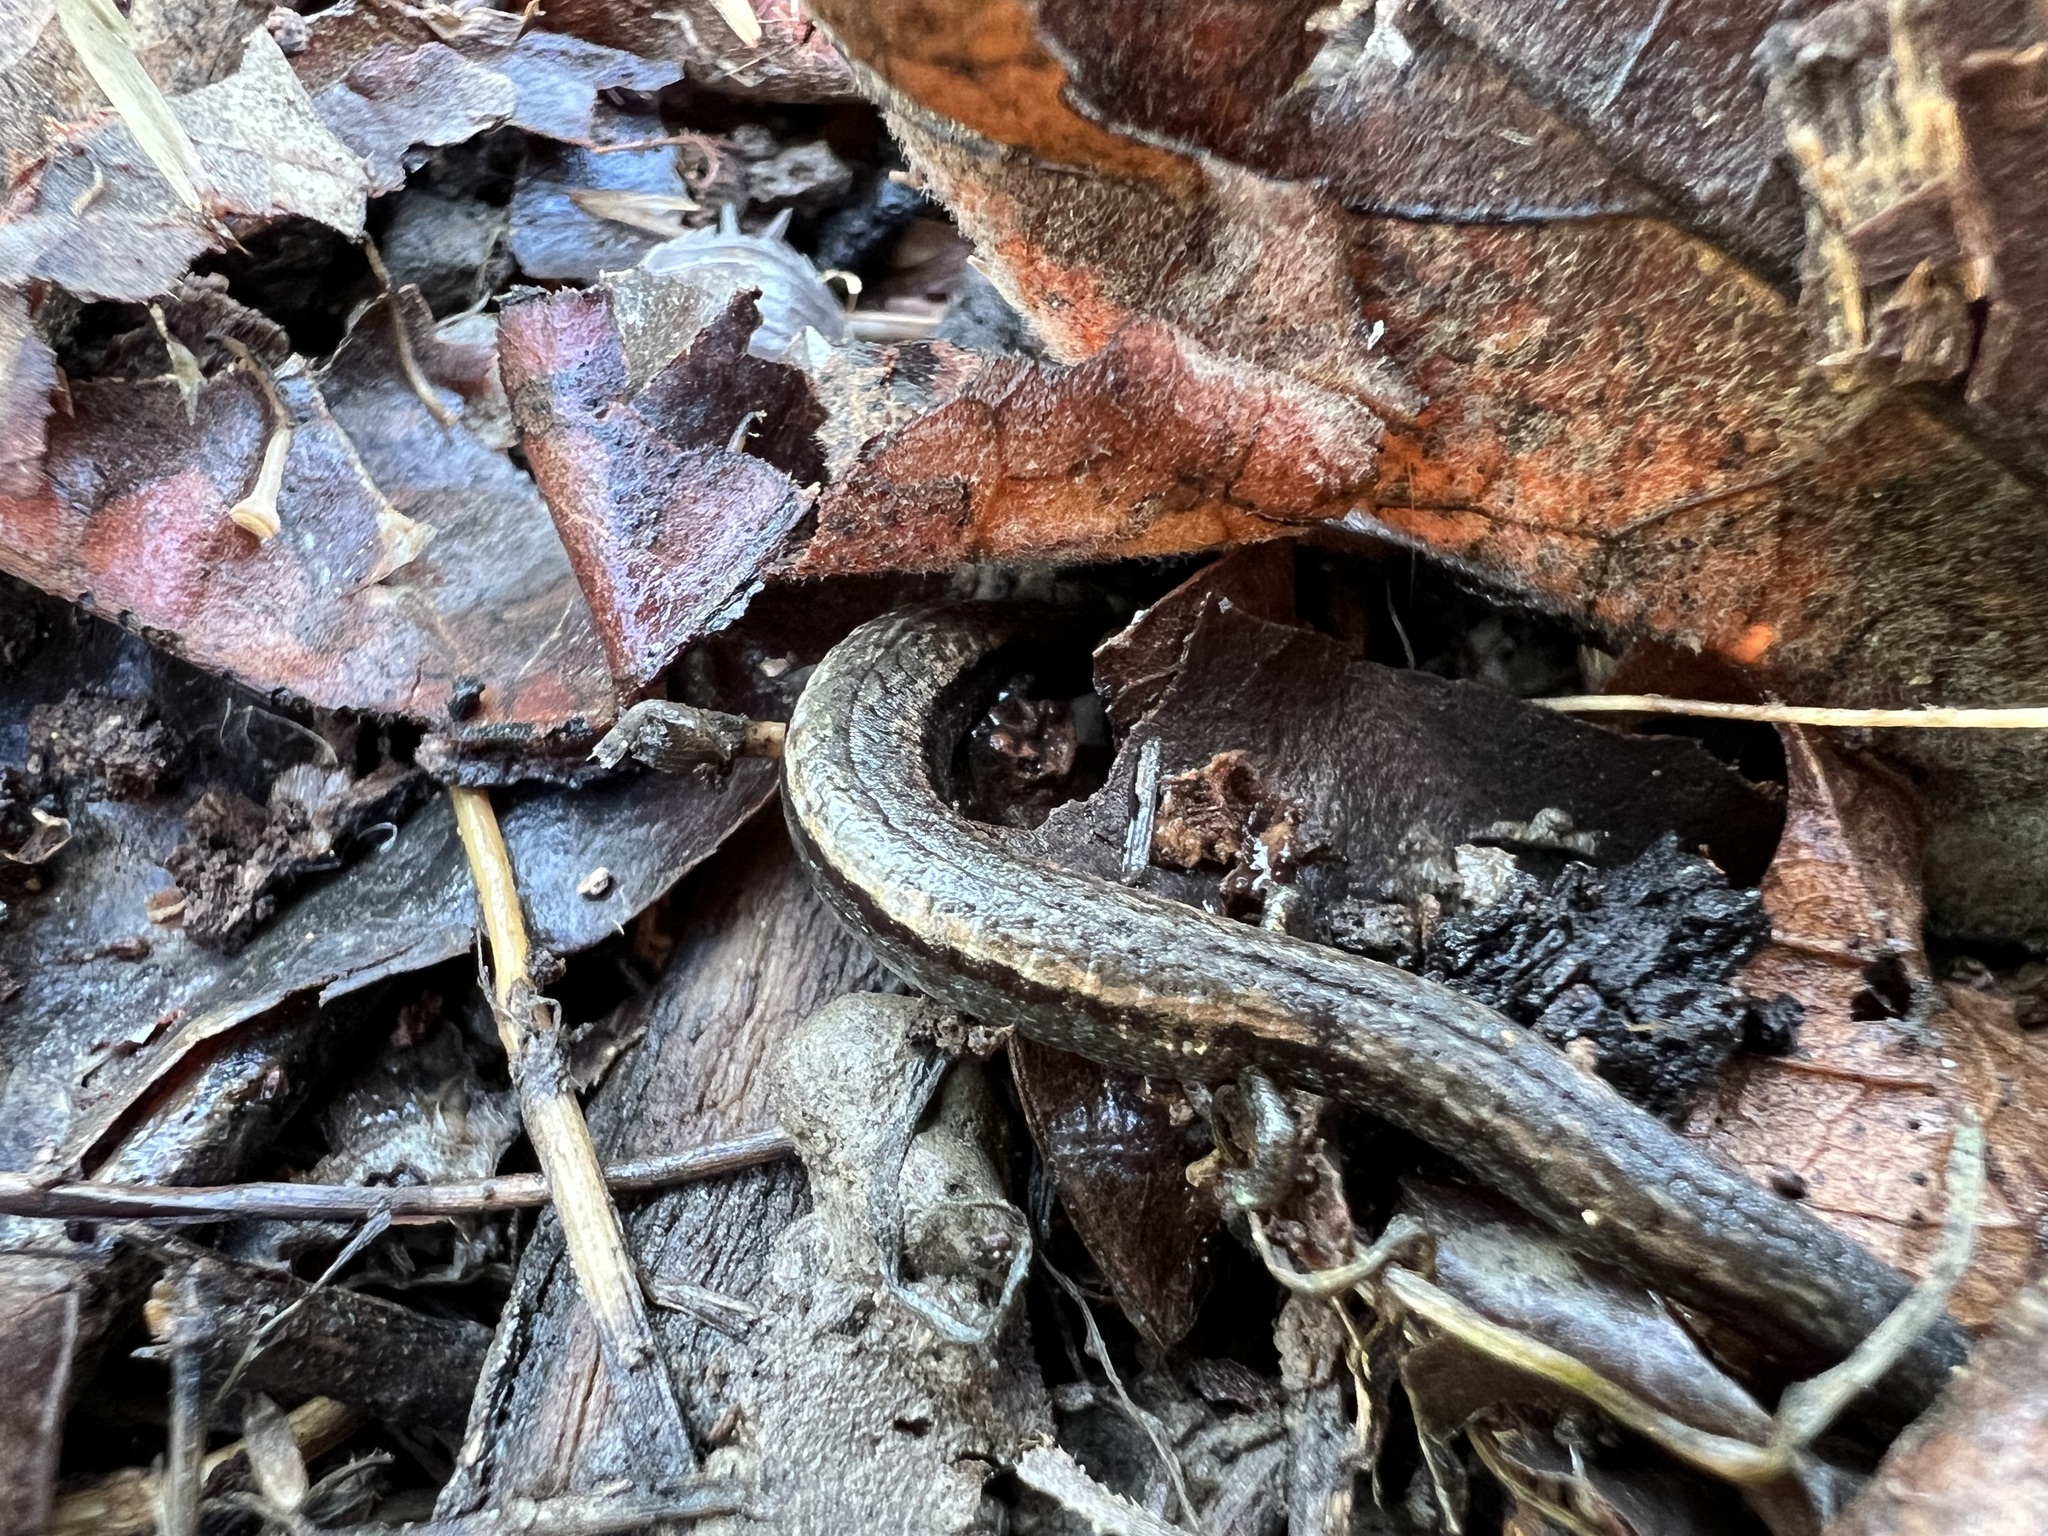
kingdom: Animalia
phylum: Chordata
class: Amphibia
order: Caudata
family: Plethodontidae
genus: Batrachoseps
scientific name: Batrachoseps nigriventris
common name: Black-bellied slender salamander
